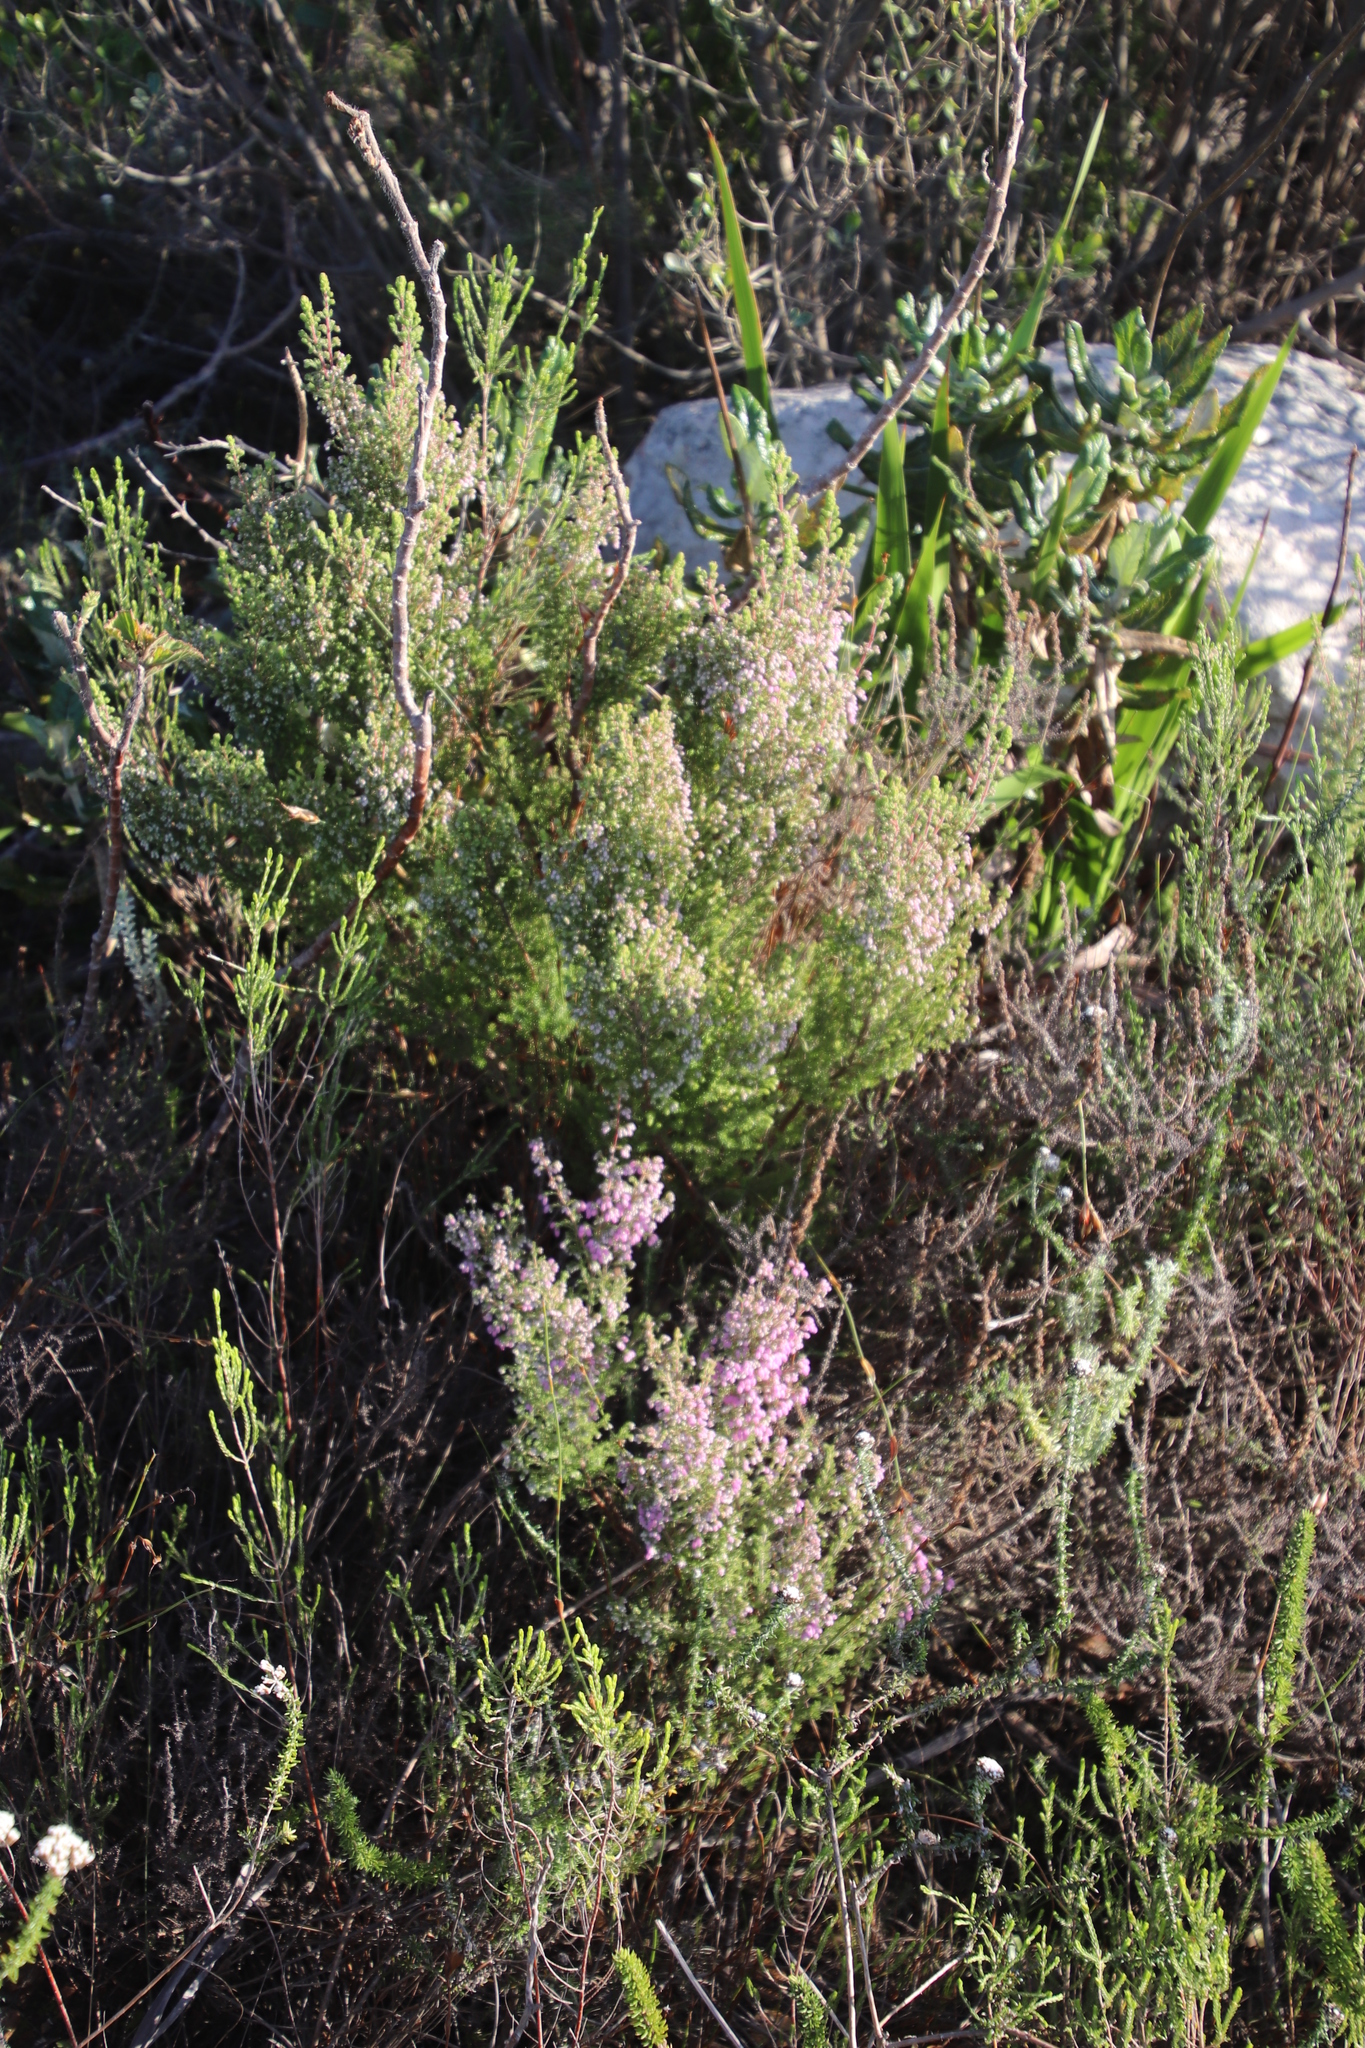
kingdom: Plantae
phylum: Tracheophyta
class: Magnoliopsida
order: Ericales
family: Ericaceae
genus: Erica
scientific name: Erica hirtiflora
